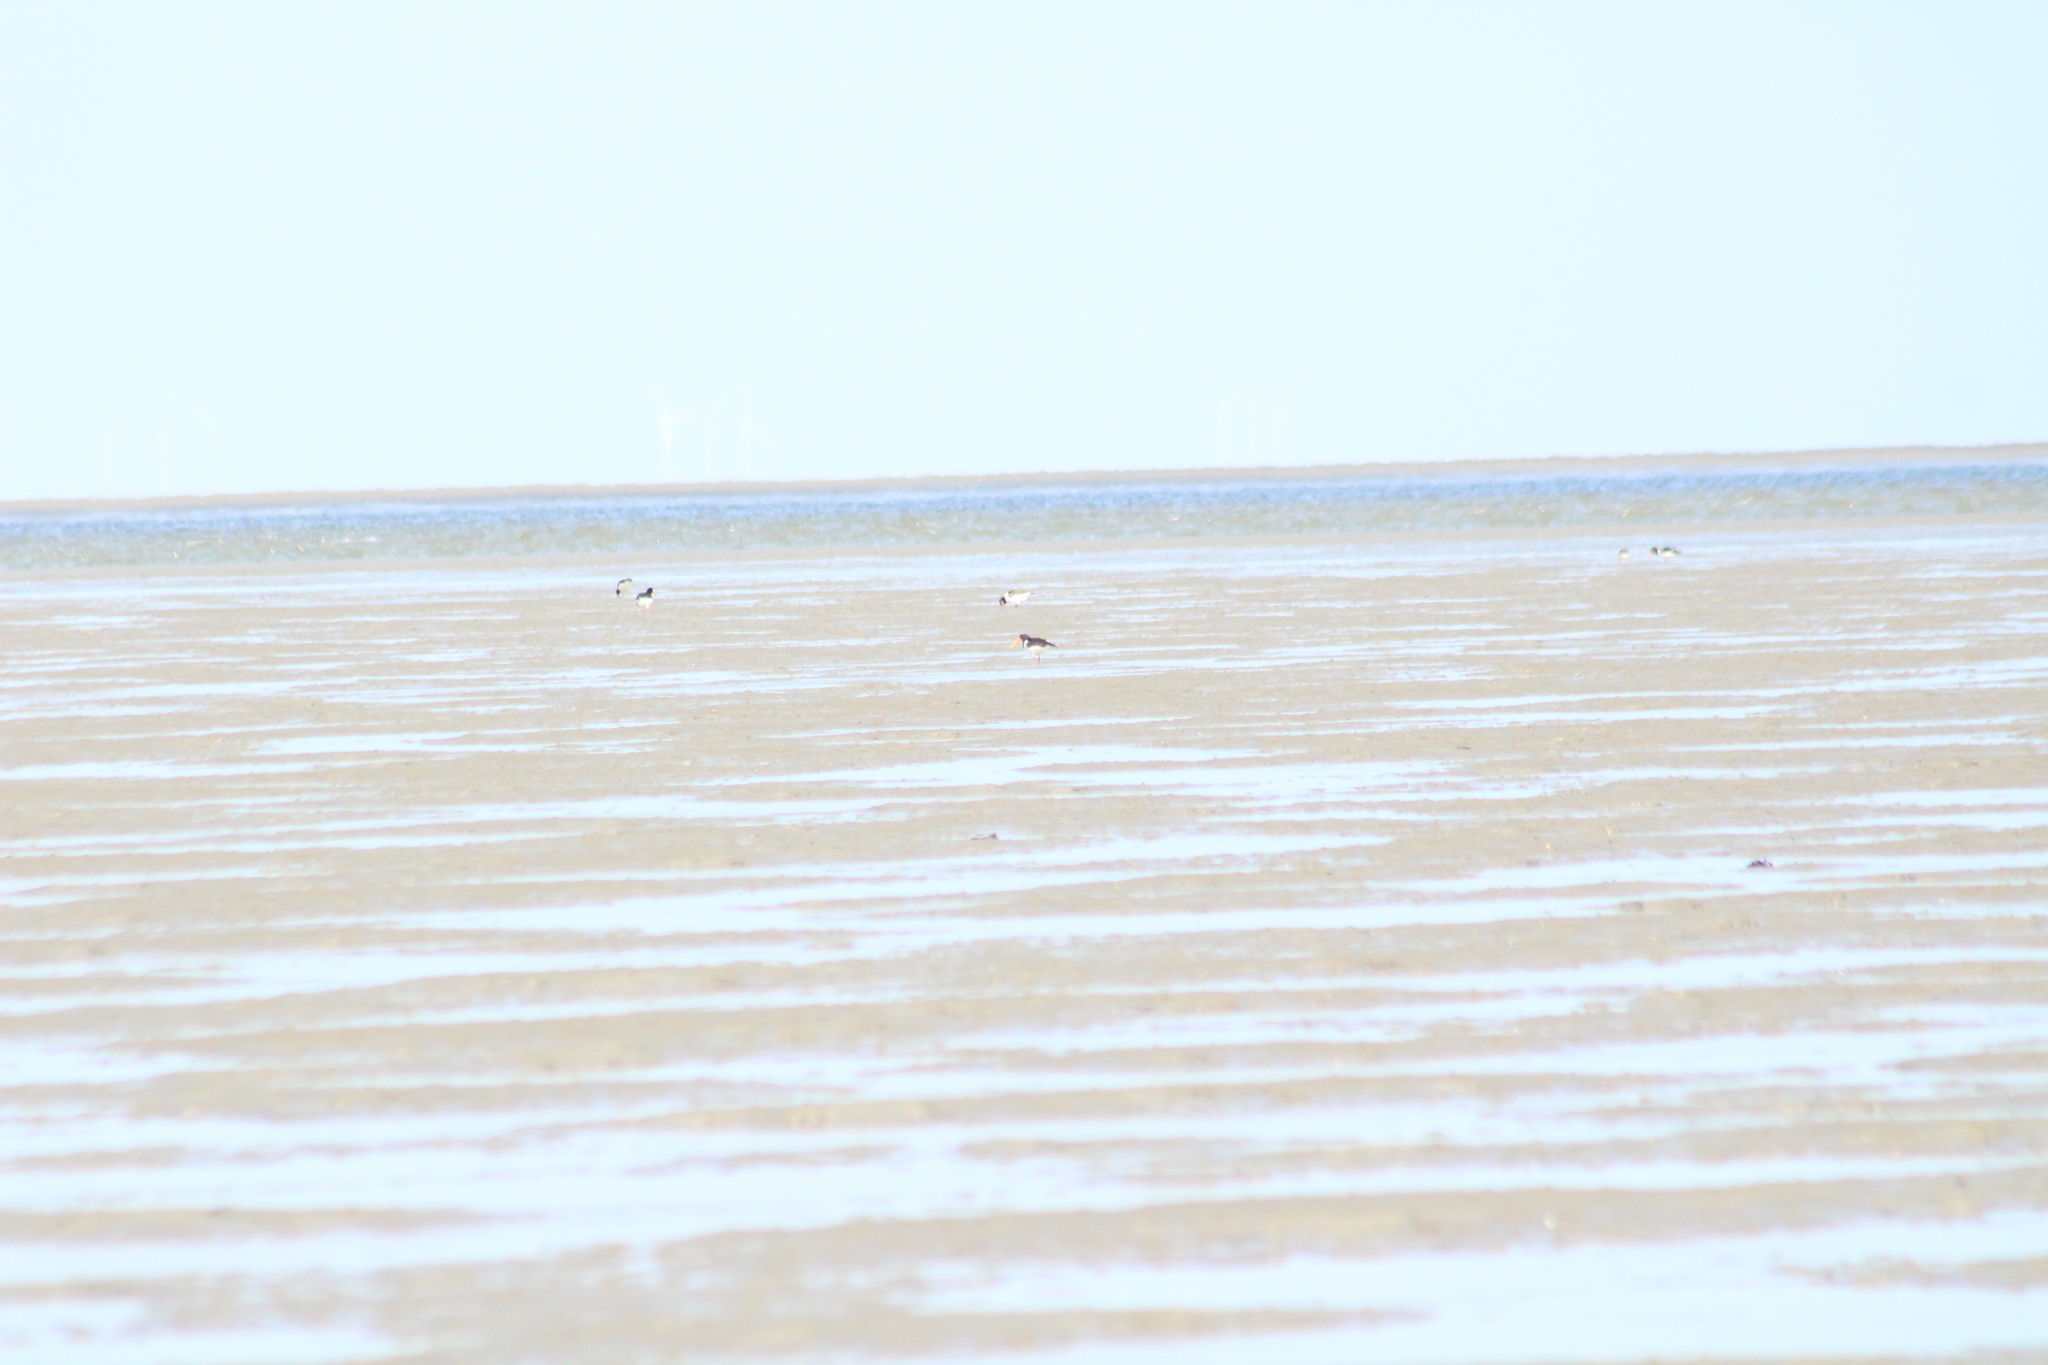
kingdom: Animalia
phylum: Chordata
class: Aves
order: Charadriiformes
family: Haematopodidae
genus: Haematopus
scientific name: Haematopus ostralegus
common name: Eurasian oystercatcher
